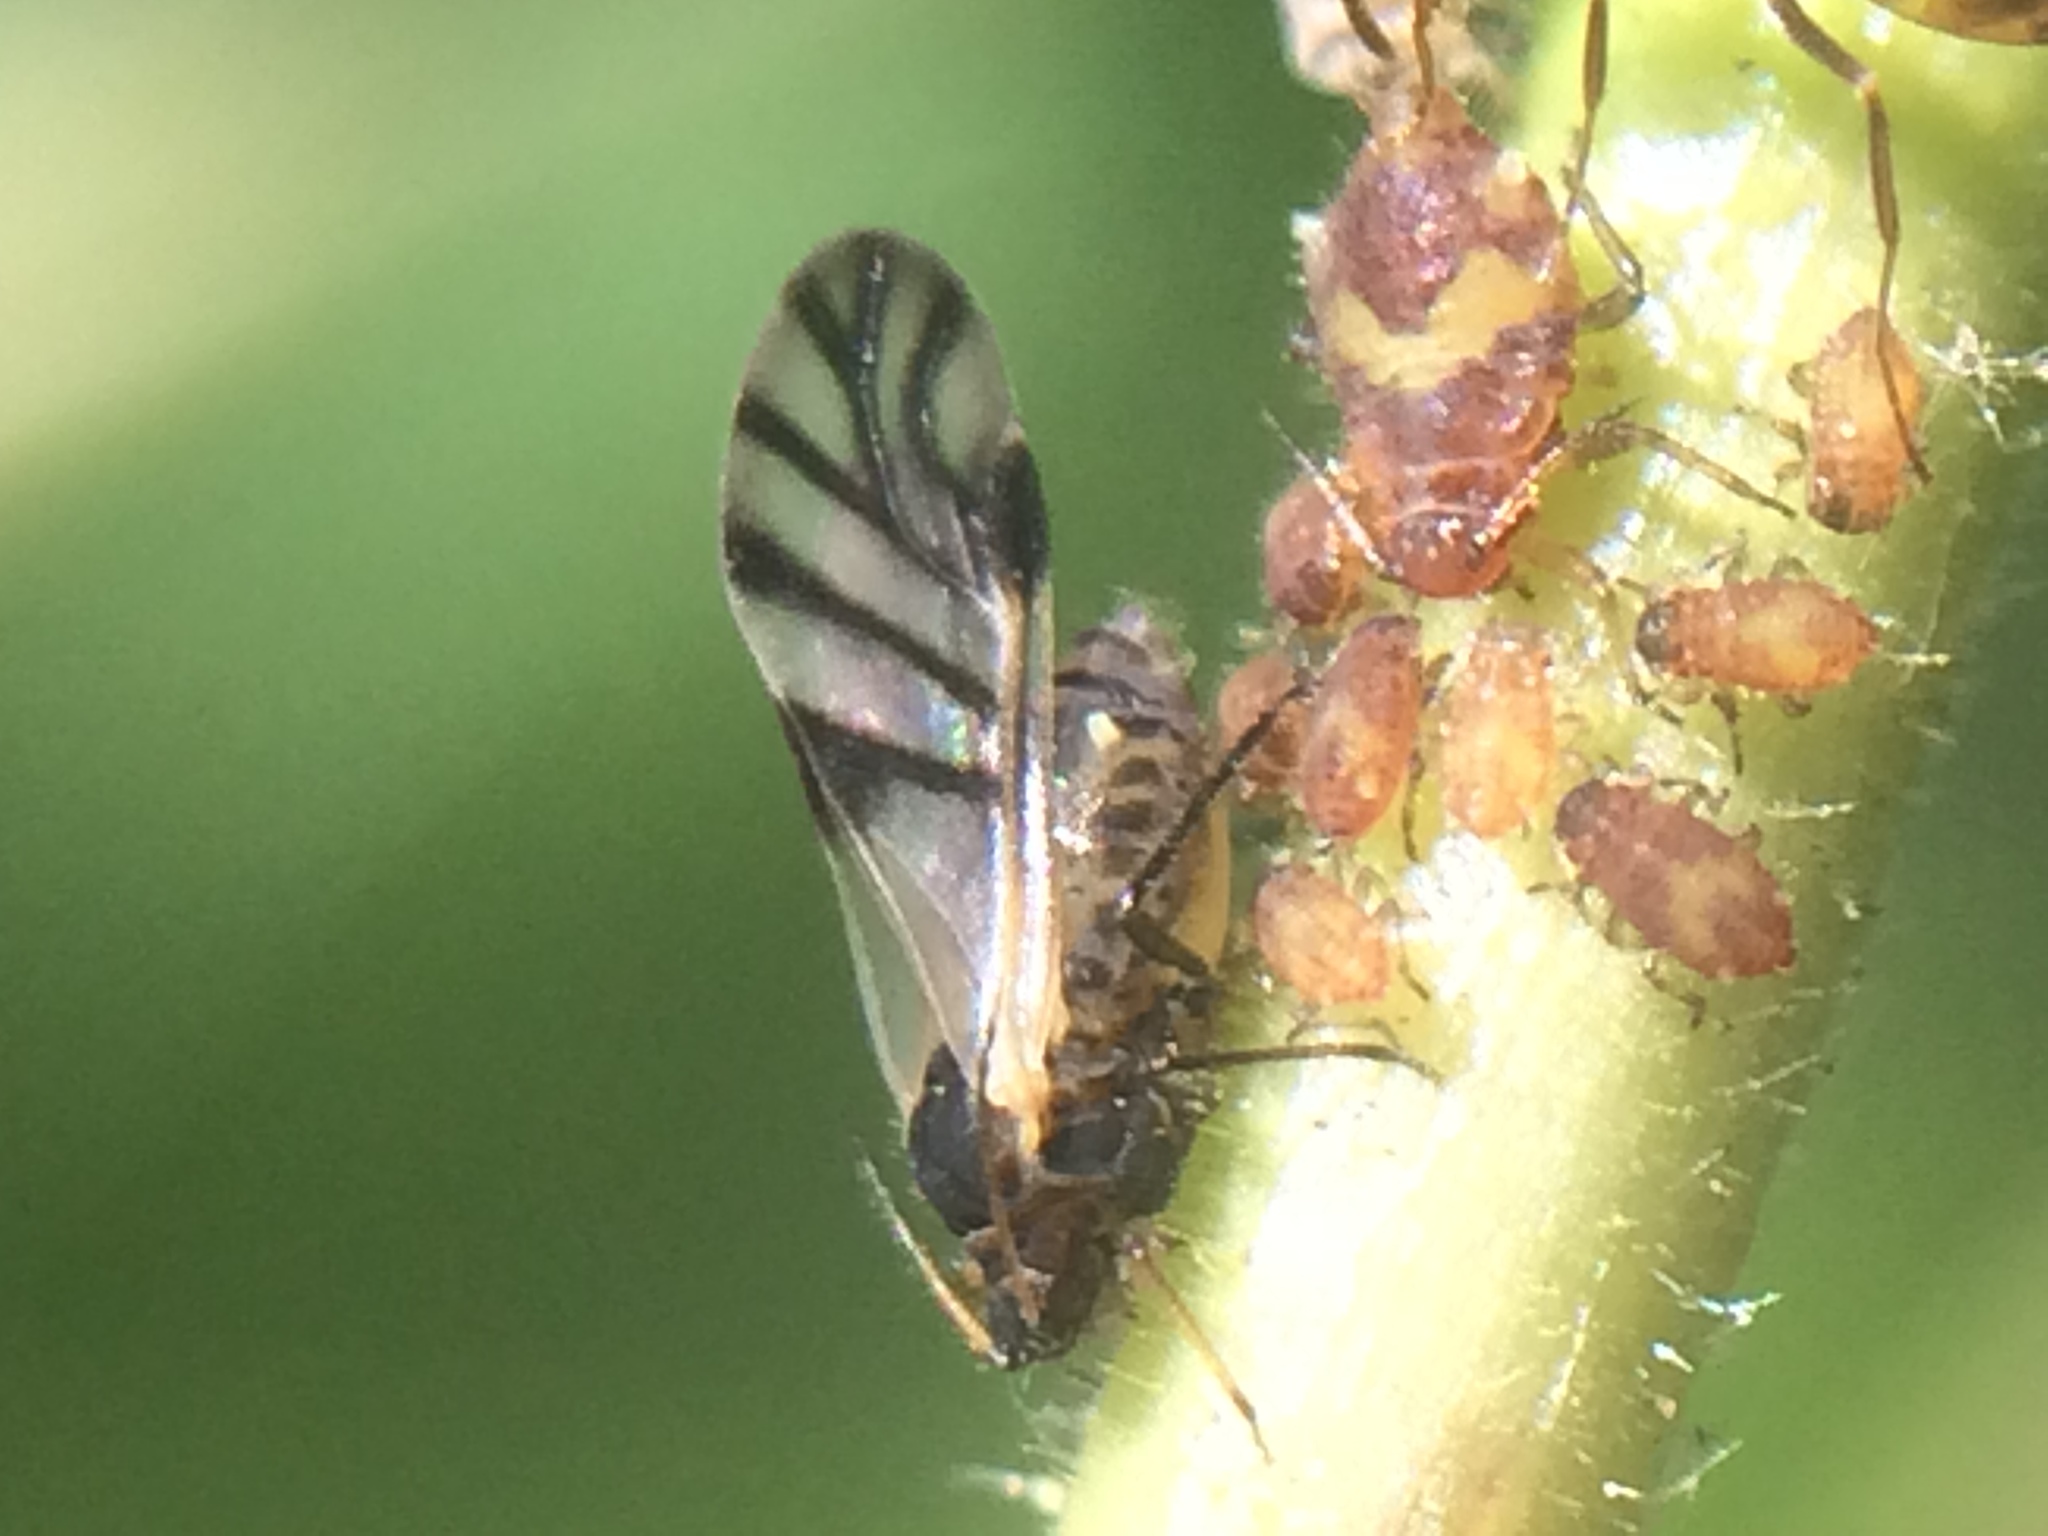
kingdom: Animalia
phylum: Arthropoda
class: Insecta
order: Hemiptera
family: Aphididae
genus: Chaitophorus
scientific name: Chaitophorus populicola
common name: Smokywinged poplar aphid
